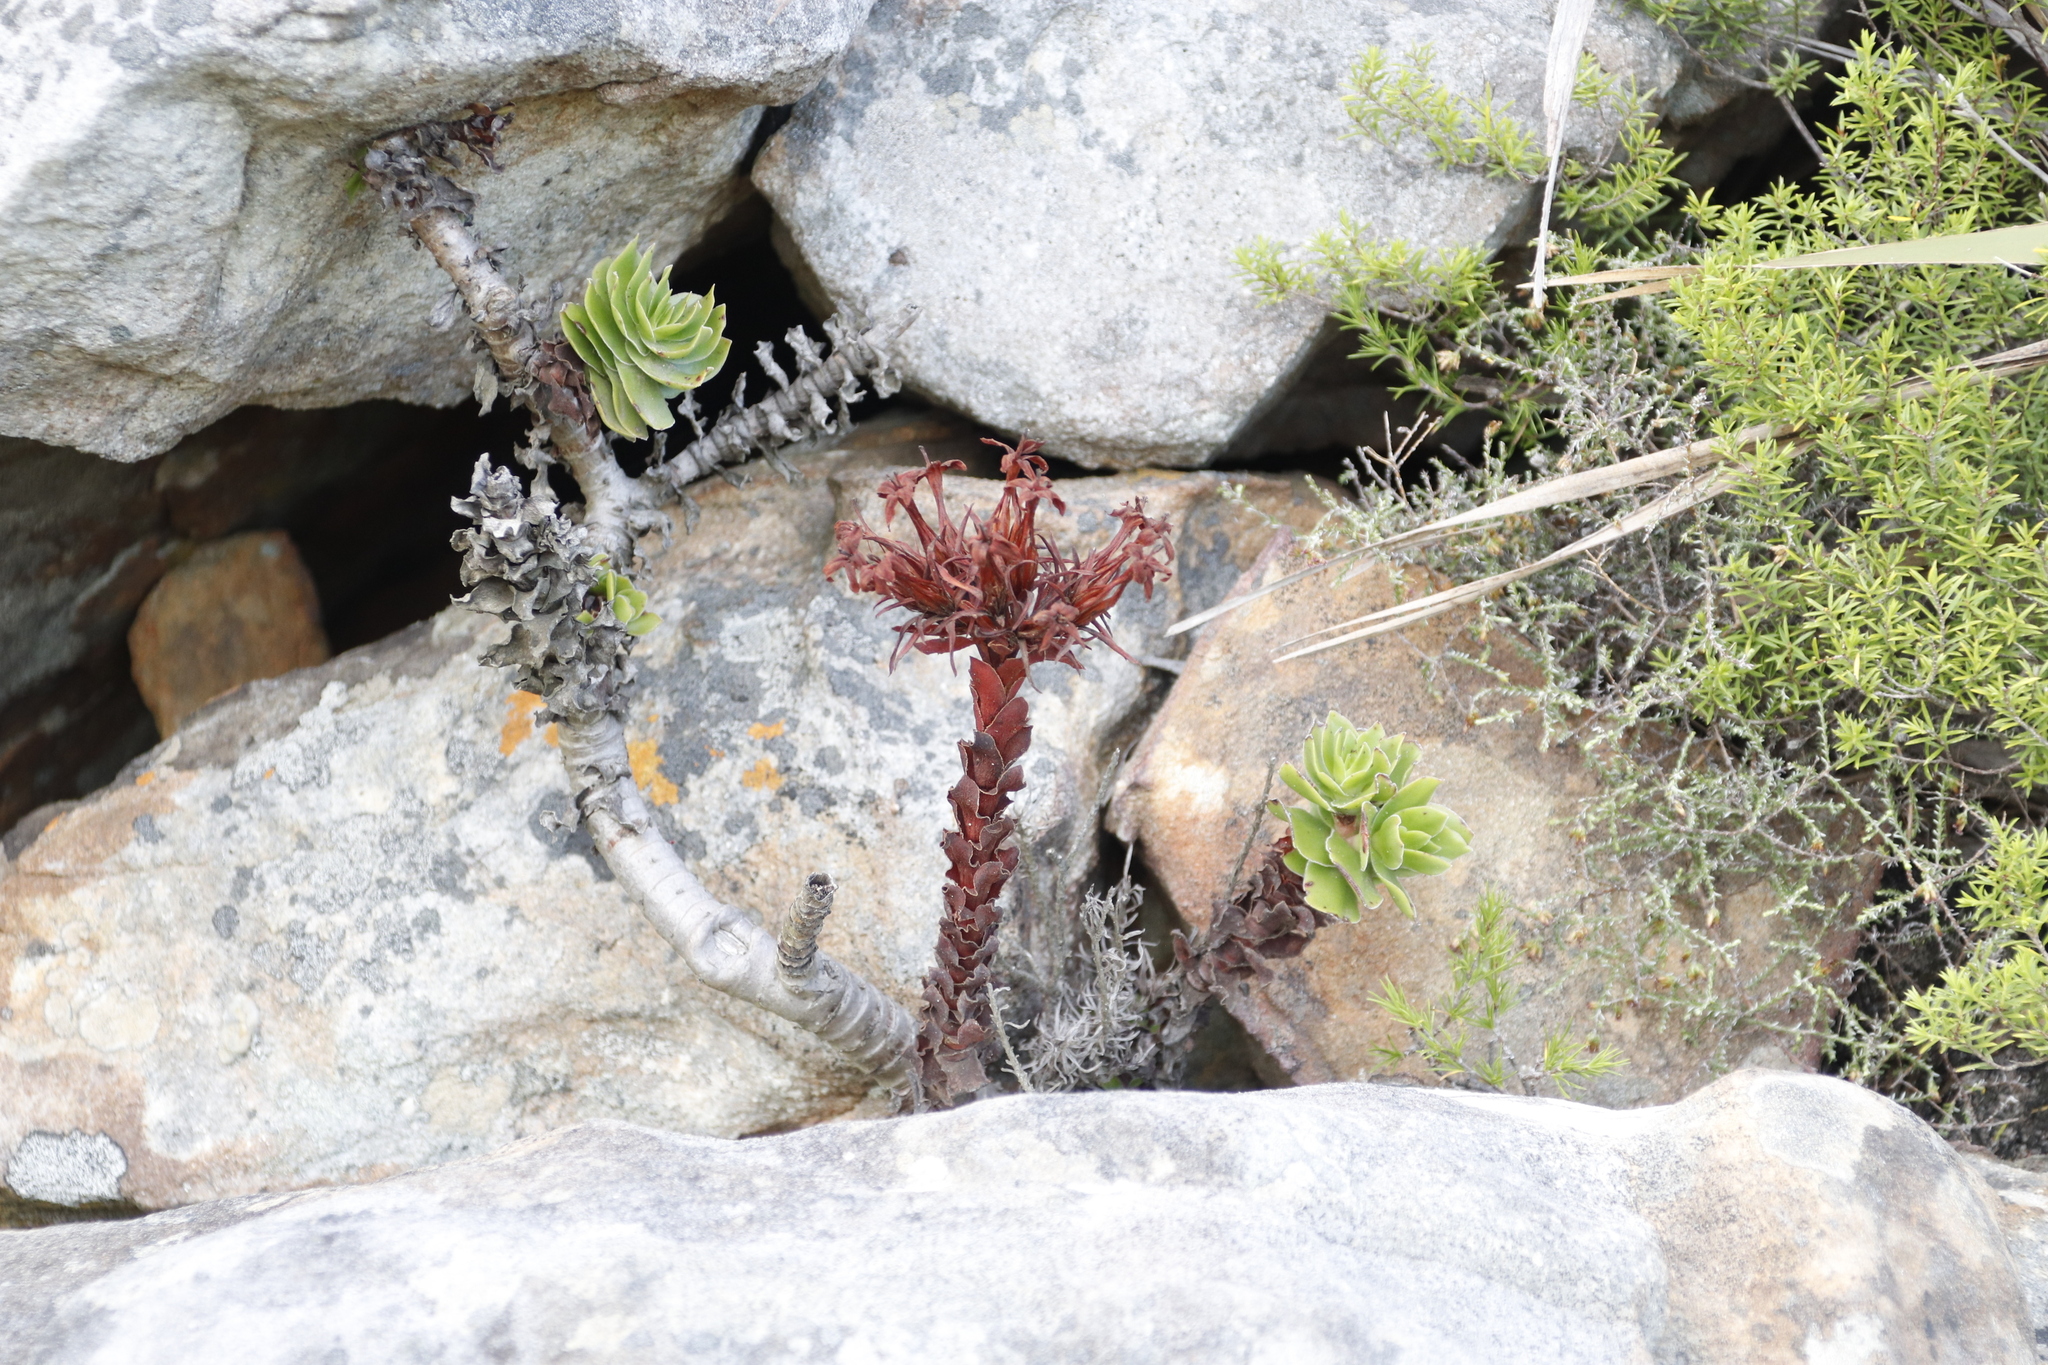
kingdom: Plantae
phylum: Tracheophyta
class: Magnoliopsida
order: Saxifragales
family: Crassulaceae
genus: Crassula
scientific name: Crassula coccinea
